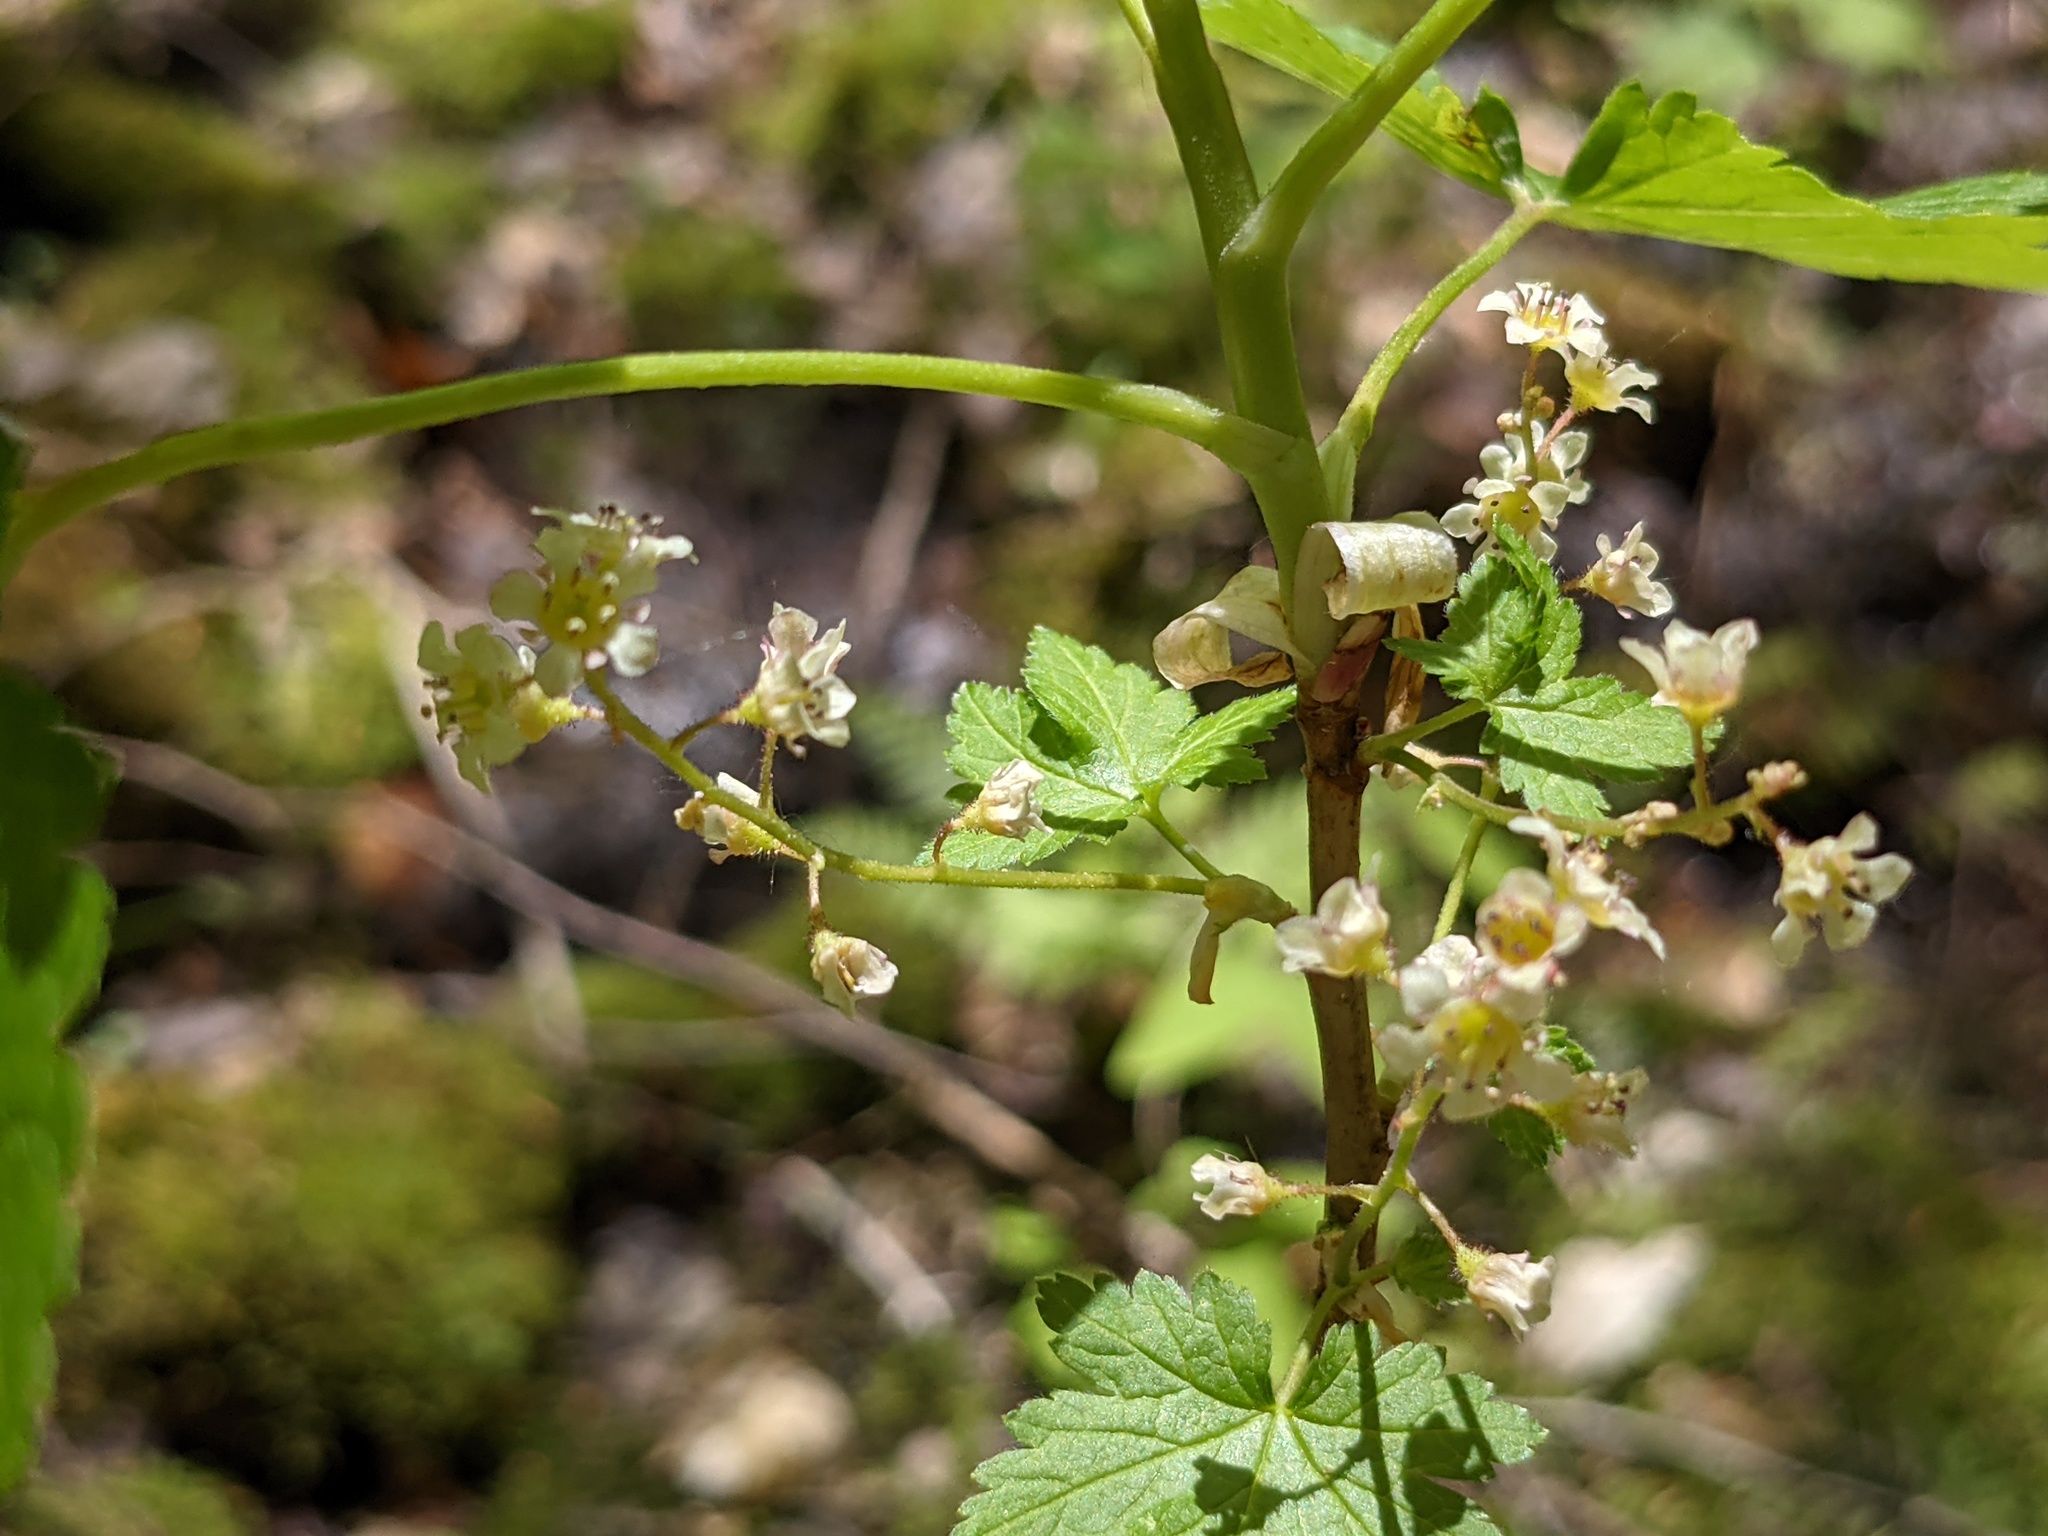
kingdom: Plantae
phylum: Tracheophyta
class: Magnoliopsida
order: Saxifragales
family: Grossulariaceae
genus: Ribes
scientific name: Ribes glandulosum
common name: Skunk currant
